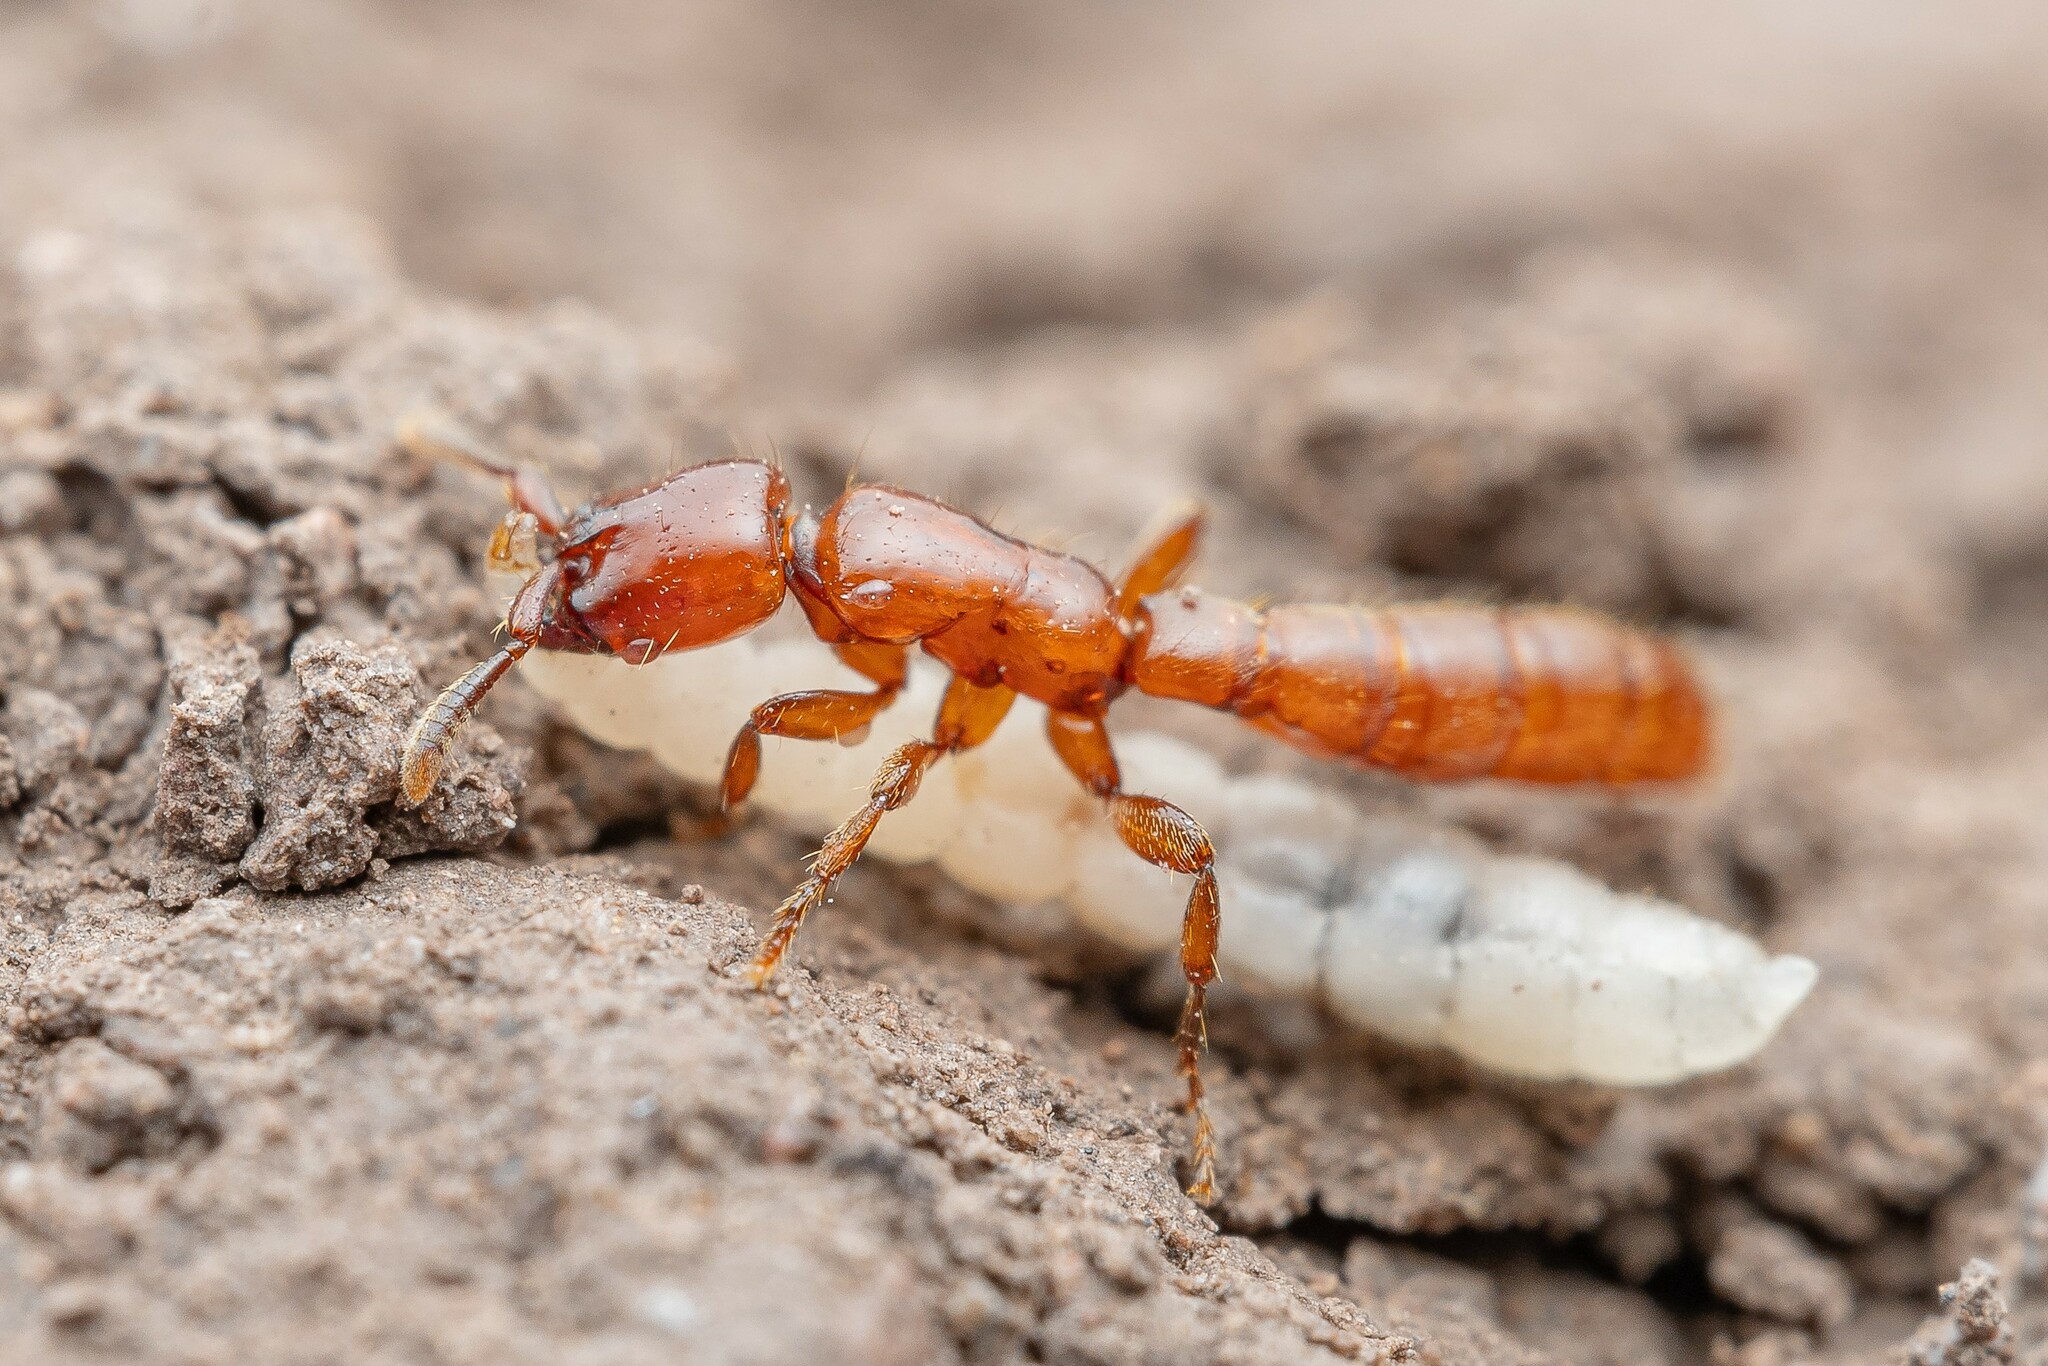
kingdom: Animalia
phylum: Arthropoda
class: Insecta
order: Hymenoptera
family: Formicidae
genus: Acanthostichus
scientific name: Acanthostichus
